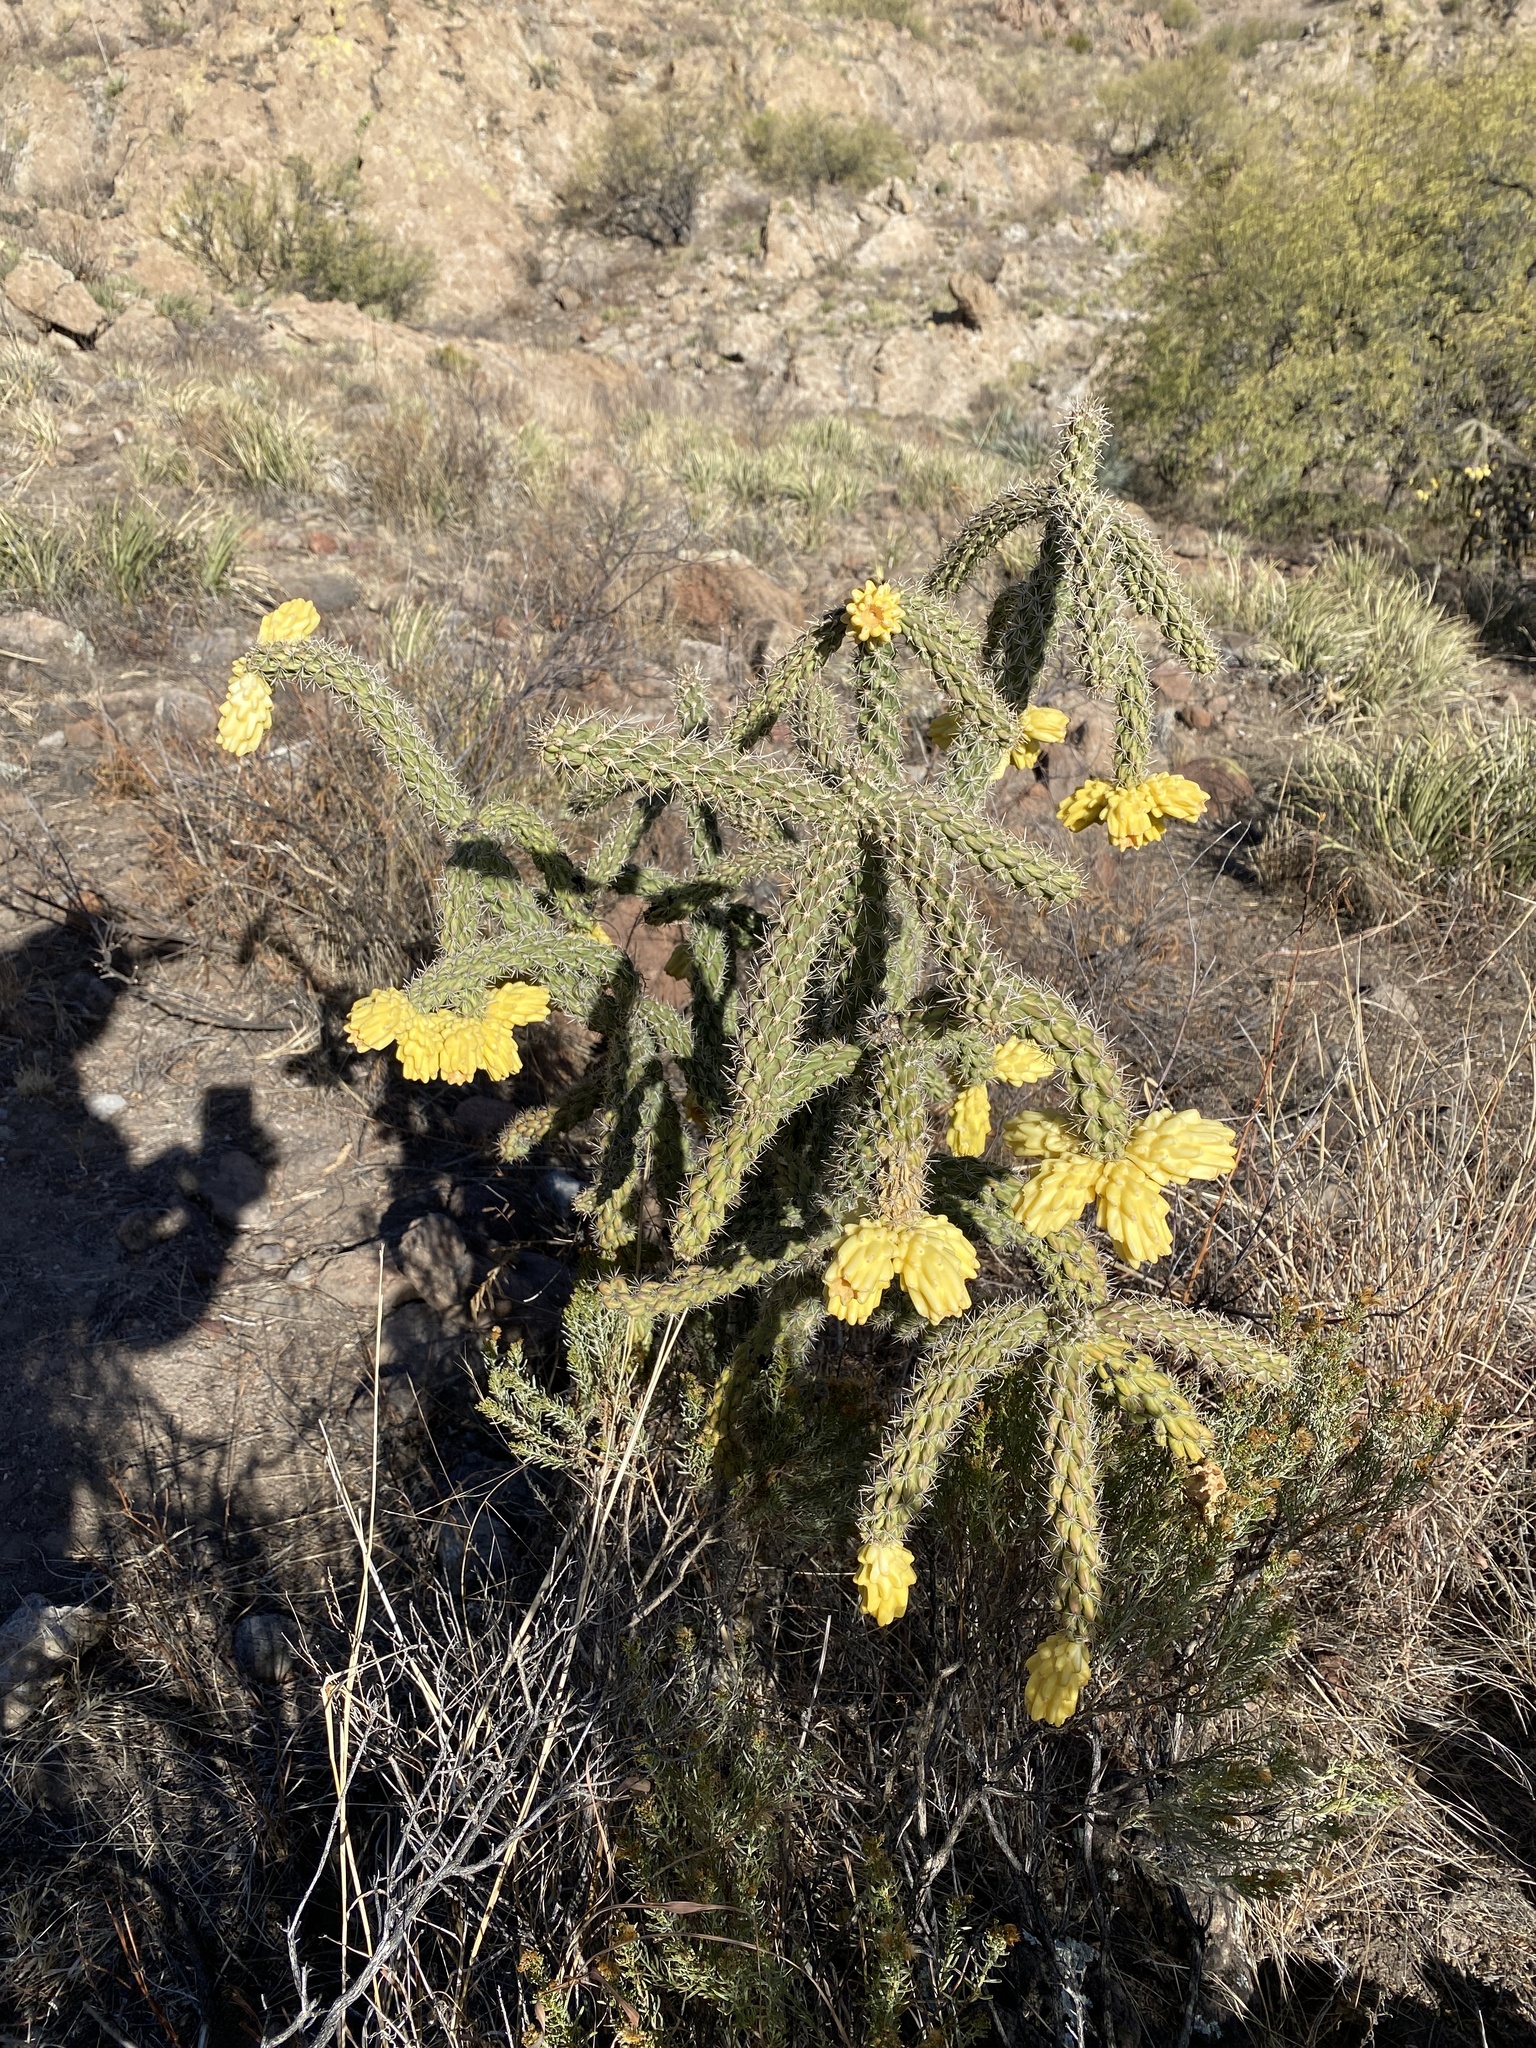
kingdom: Plantae
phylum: Tracheophyta
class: Magnoliopsida
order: Caryophyllales
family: Cactaceae
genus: Cylindropuntia
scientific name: Cylindropuntia imbricata
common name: Candelabrum cactus
